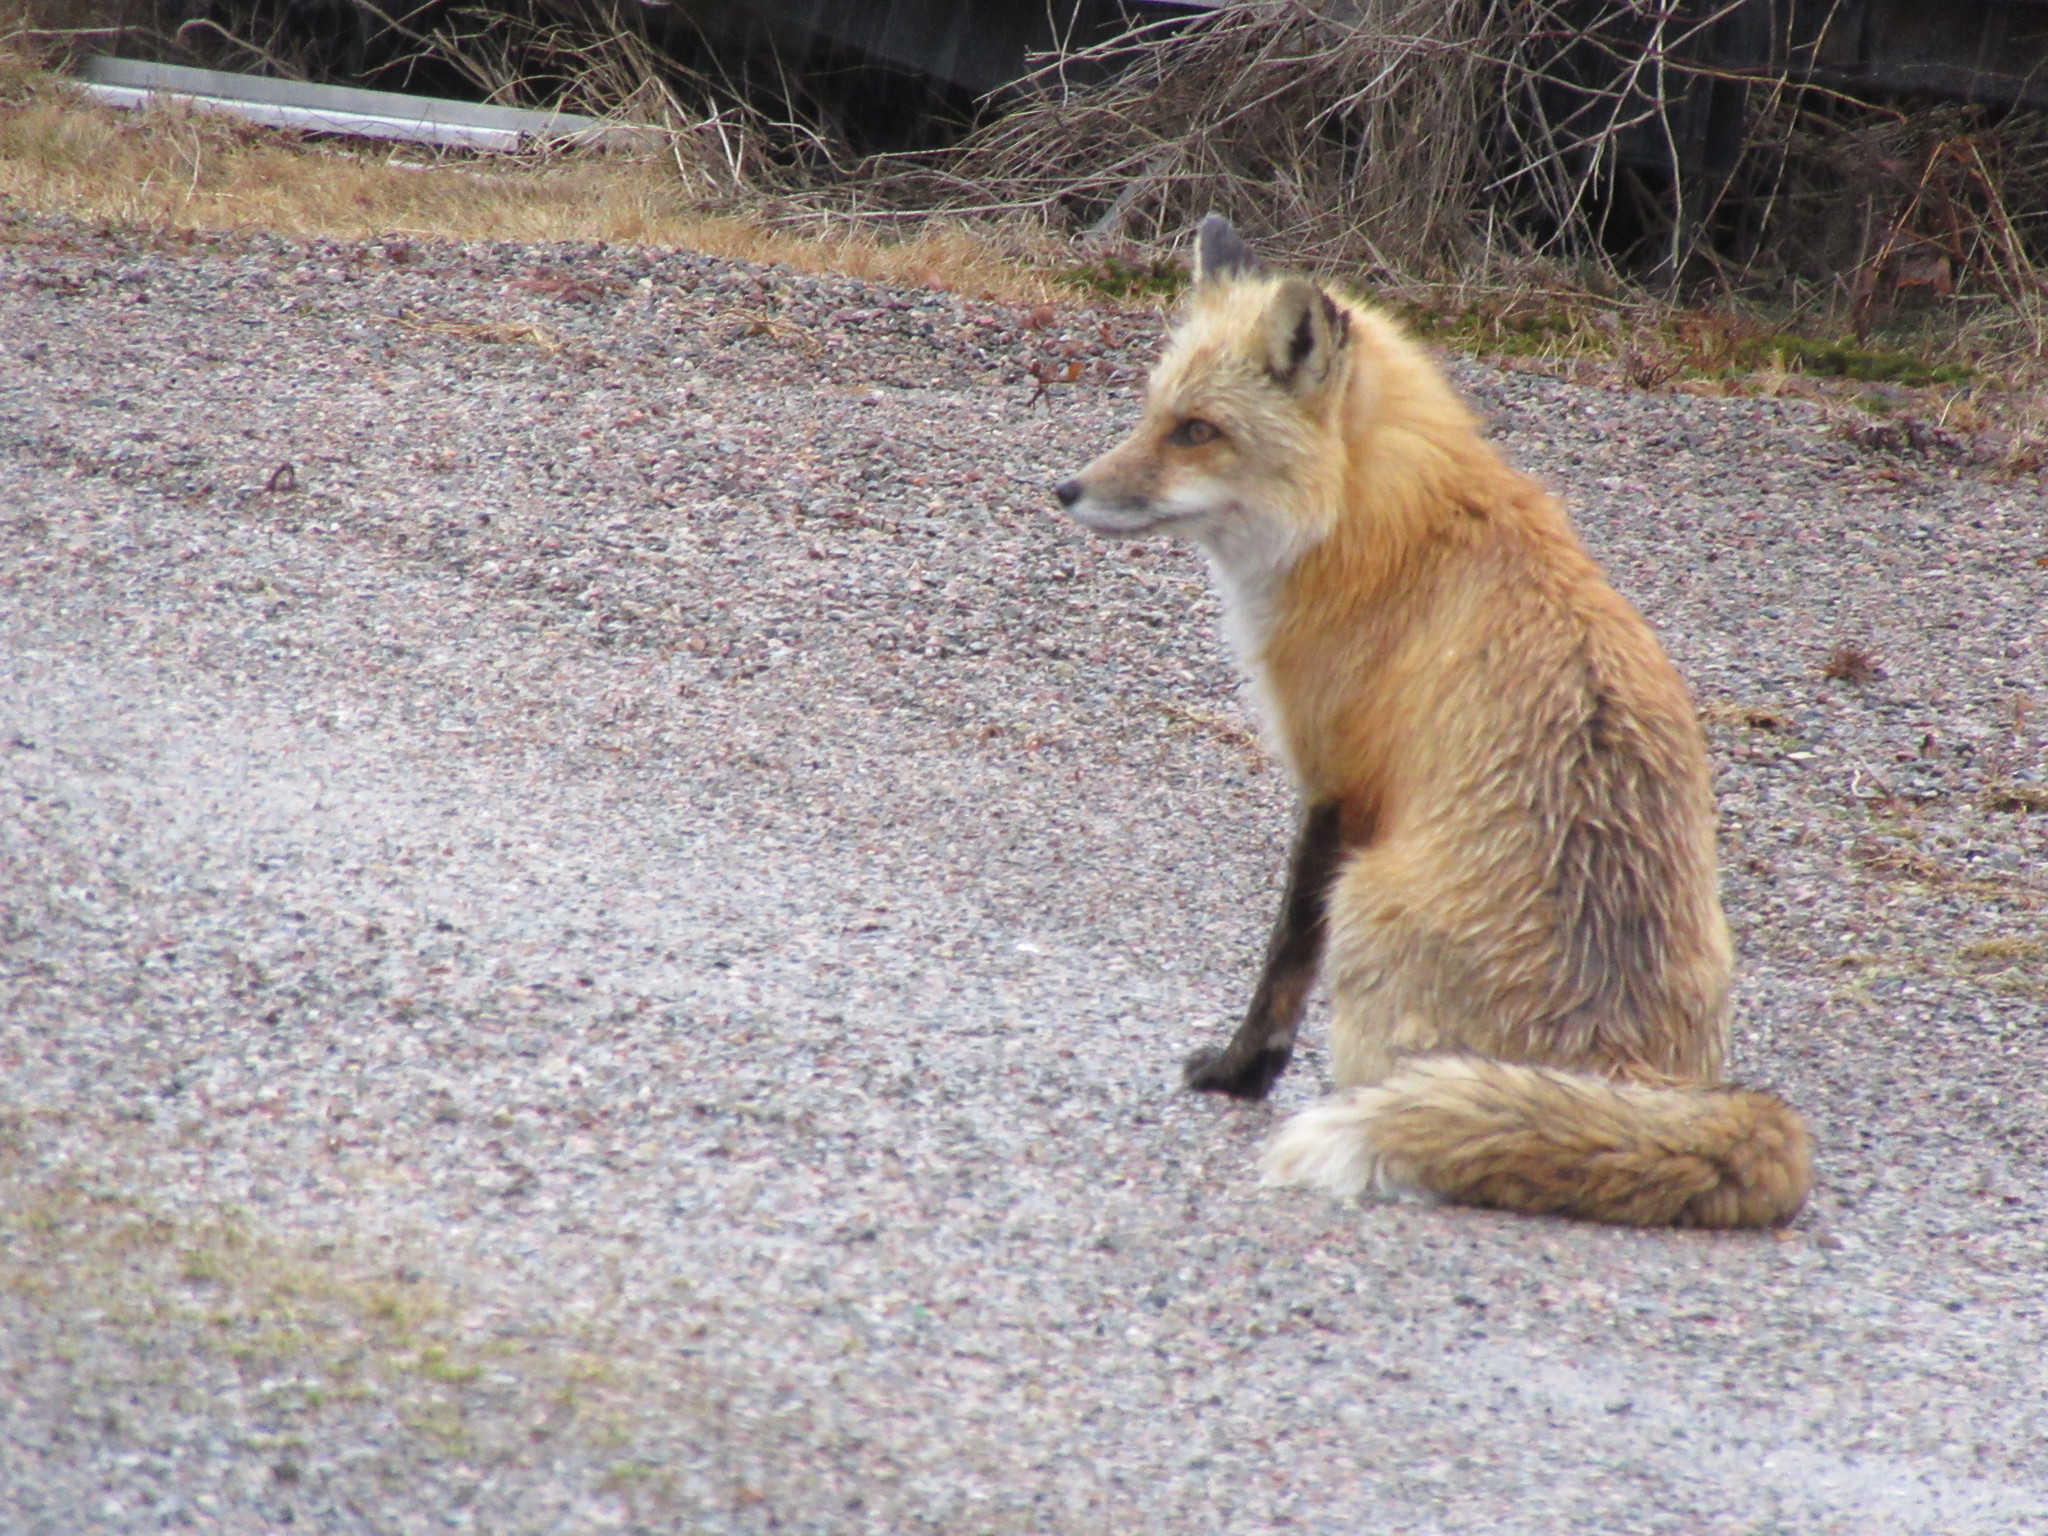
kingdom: Animalia
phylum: Chordata
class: Mammalia
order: Carnivora
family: Canidae
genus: Vulpes
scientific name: Vulpes vulpes
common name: Red fox
